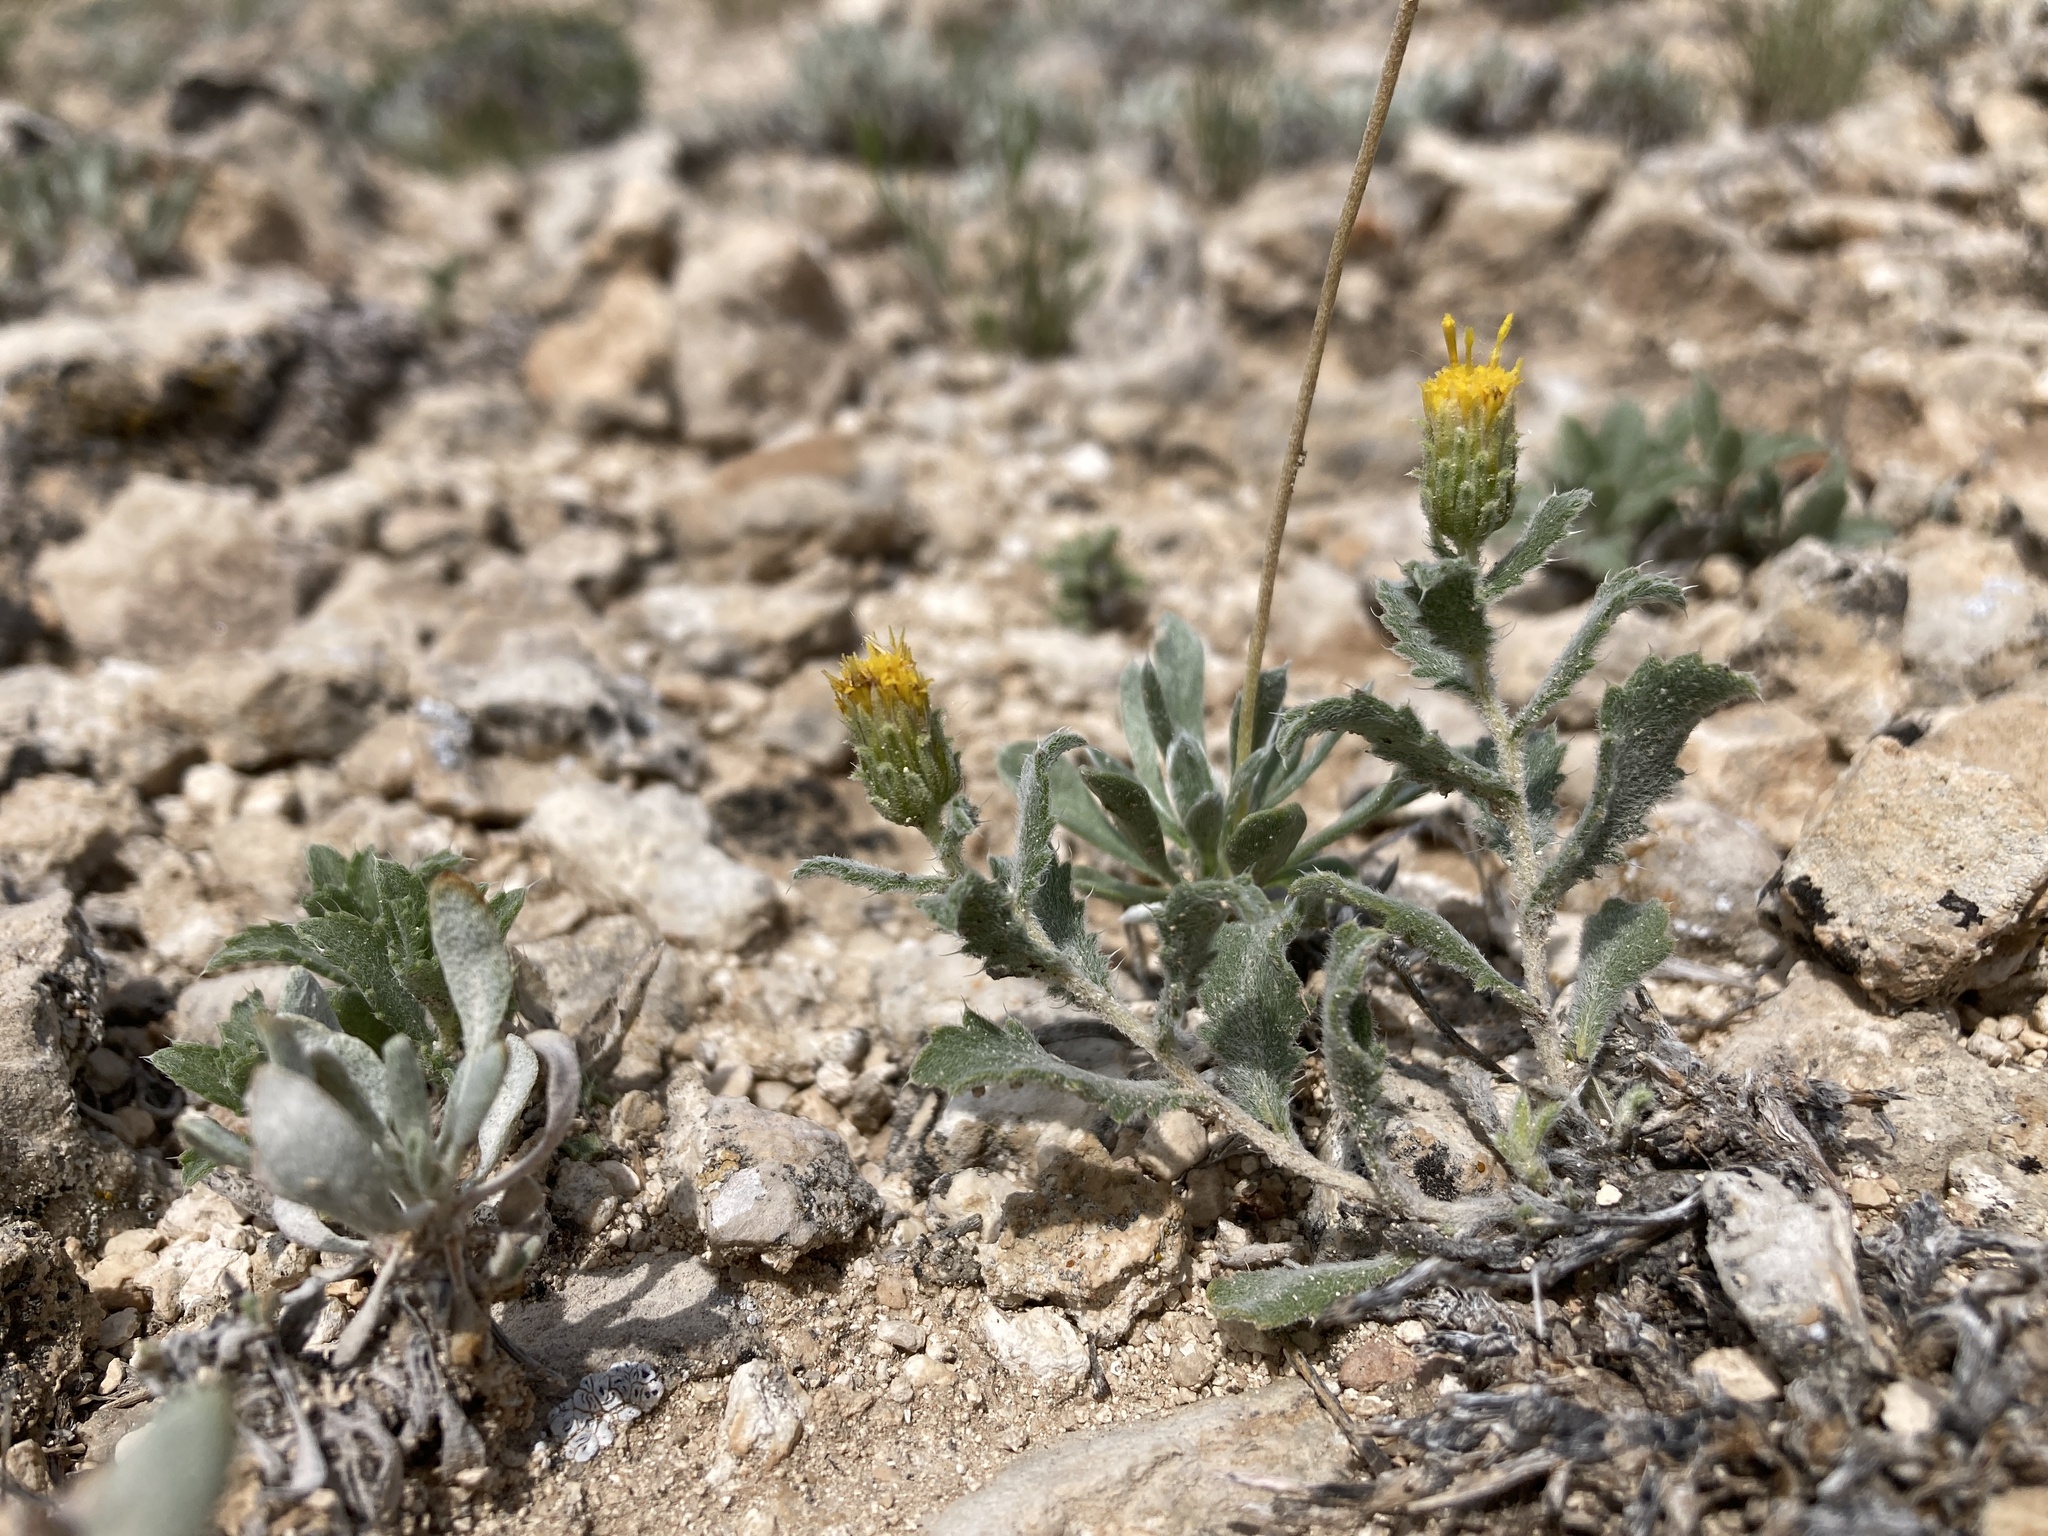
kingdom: Plantae
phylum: Tracheophyta
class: Magnoliopsida
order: Asterales
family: Asteraceae
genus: Xanthisma
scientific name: Xanthisma grindelioides
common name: Goldenweed
